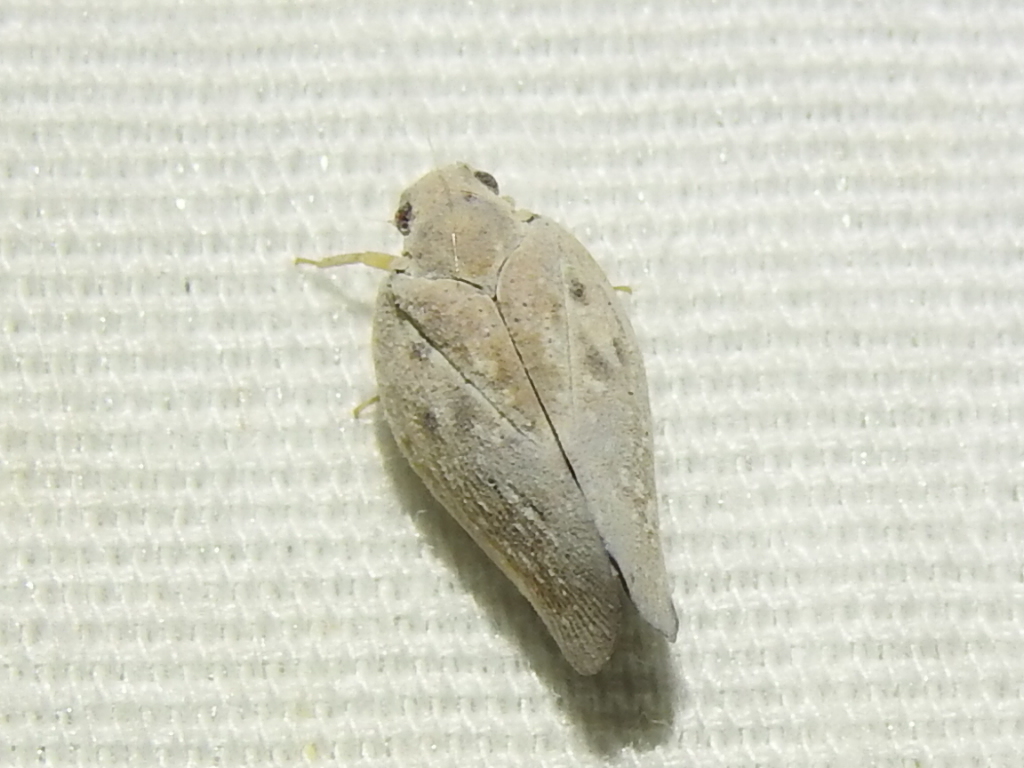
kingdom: Animalia
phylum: Arthropoda
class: Insecta
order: Hemiptera
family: Flatidae
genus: Metcalfa
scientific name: Metcalfa pruinosa
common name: Citrus flatid planthopper
